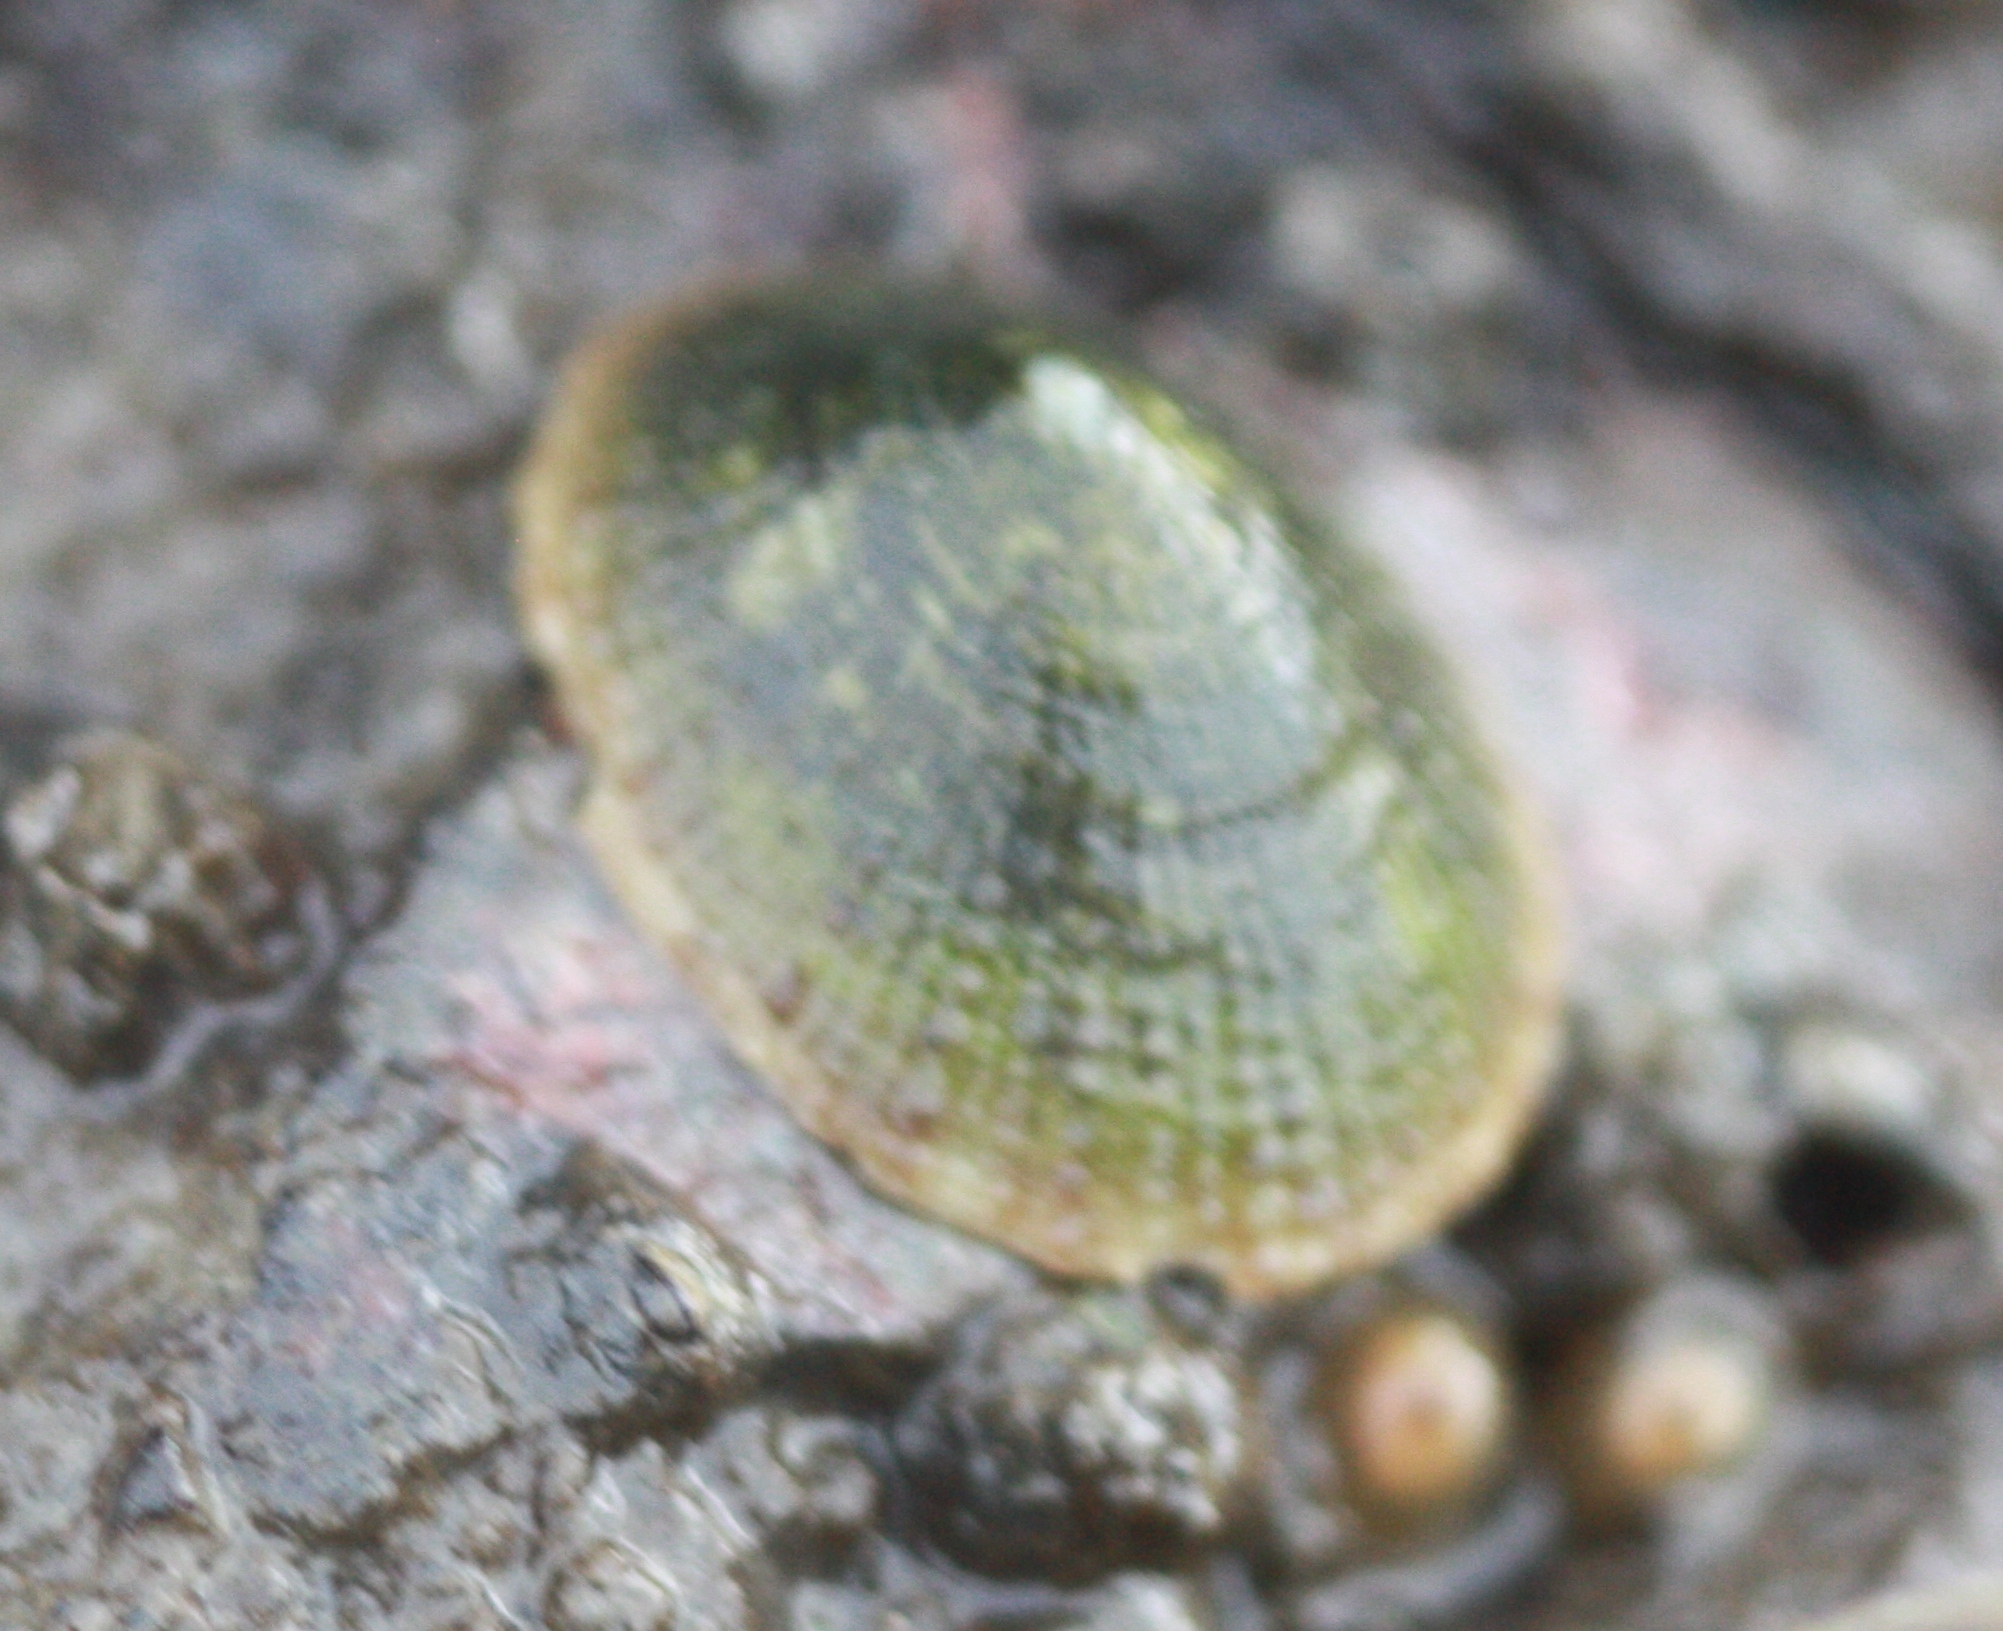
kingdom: Animalia
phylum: Mollusca
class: Gastropoda
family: Lottiidae
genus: Lottia
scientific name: Lottia limatula
